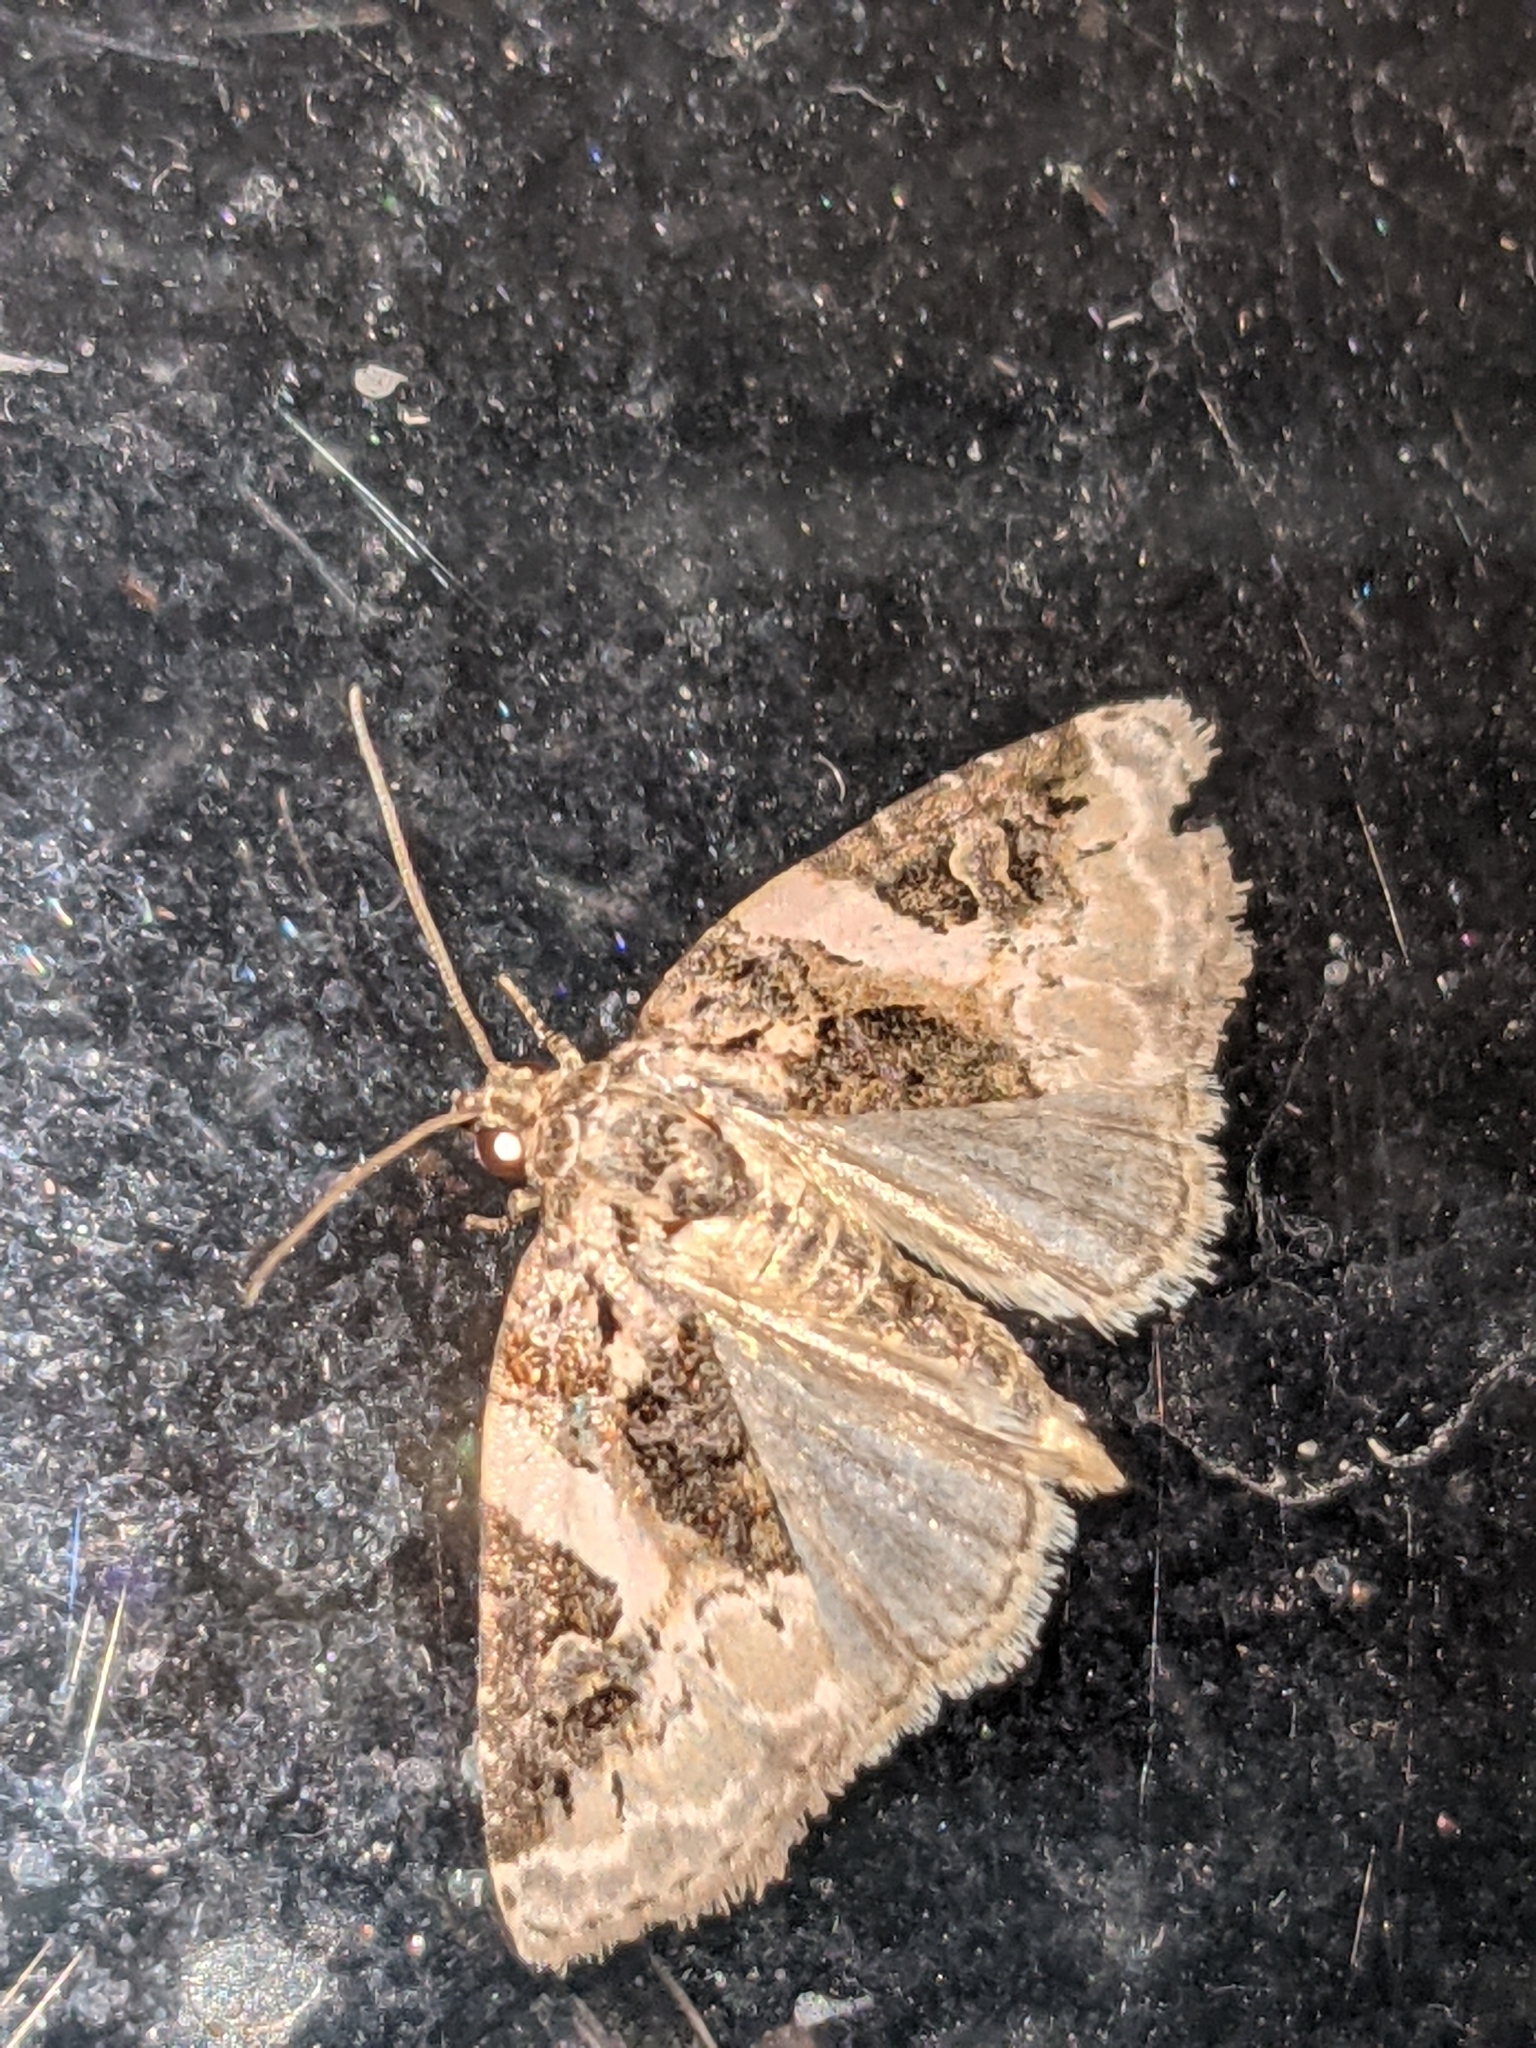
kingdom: Animalia
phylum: Arthropoda
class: Insecta
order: Lepidoptera
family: Noctuidae
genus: Pseudeustrotia
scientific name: Pseudeustrotia carneola
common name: Pink-barred lithacodia moth
